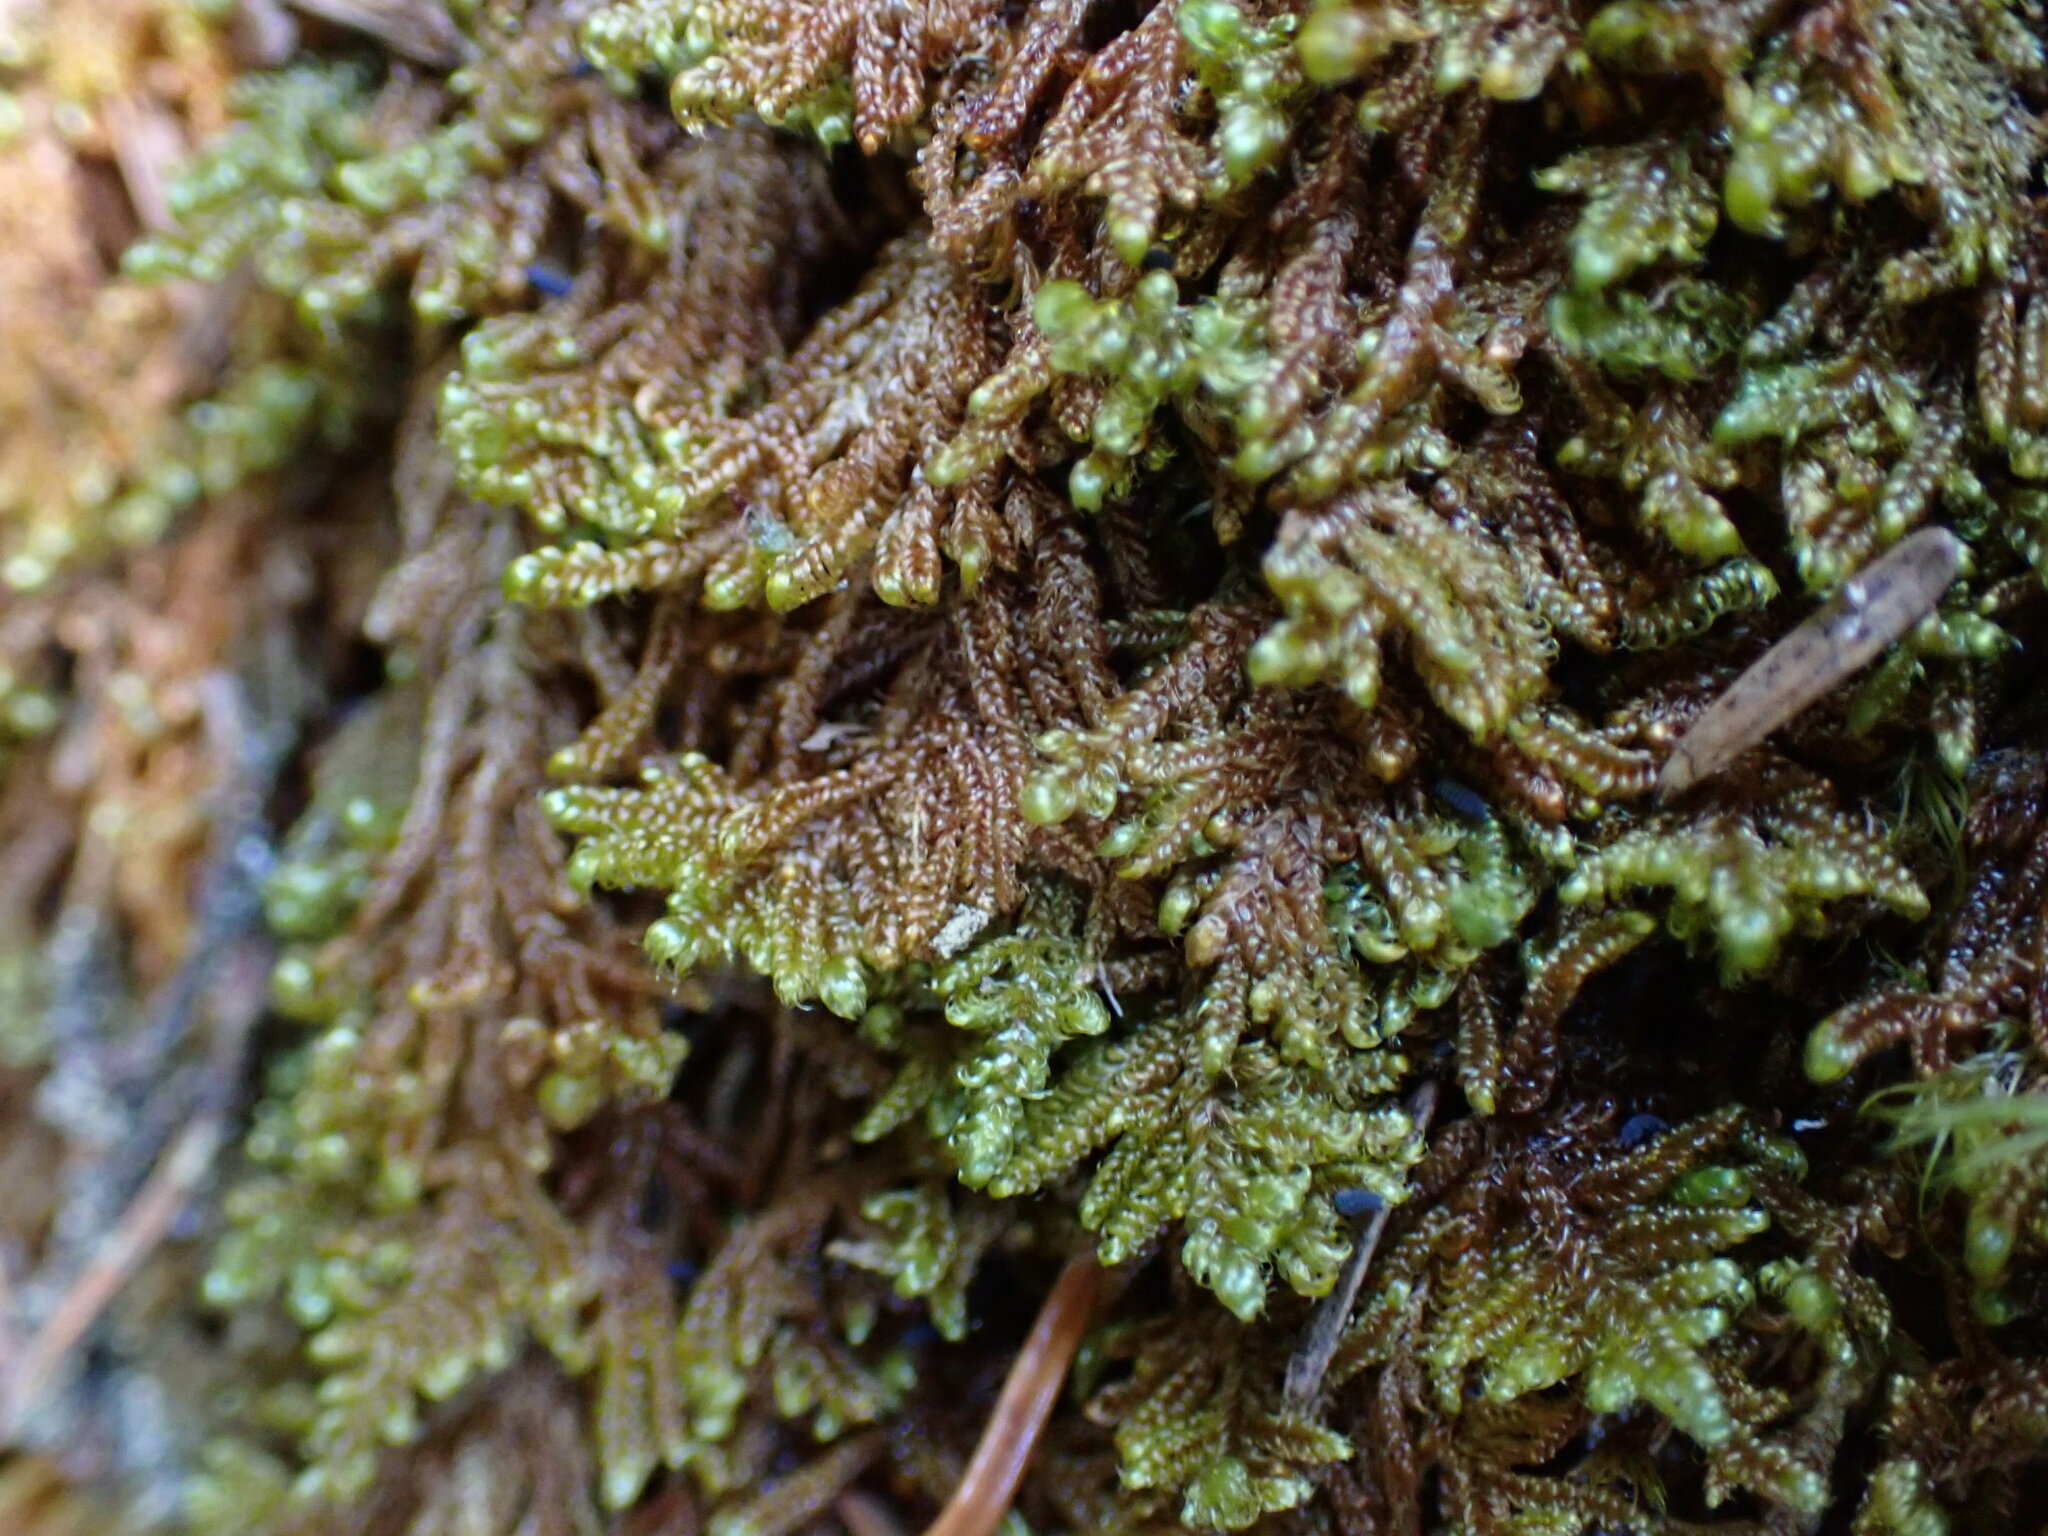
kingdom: Plantae
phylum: Bryophyta
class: Bryopsida
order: Hypnales
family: Pylaisiaceae
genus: Calliergonellopsis
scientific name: Calliergonellopsis dieckii
